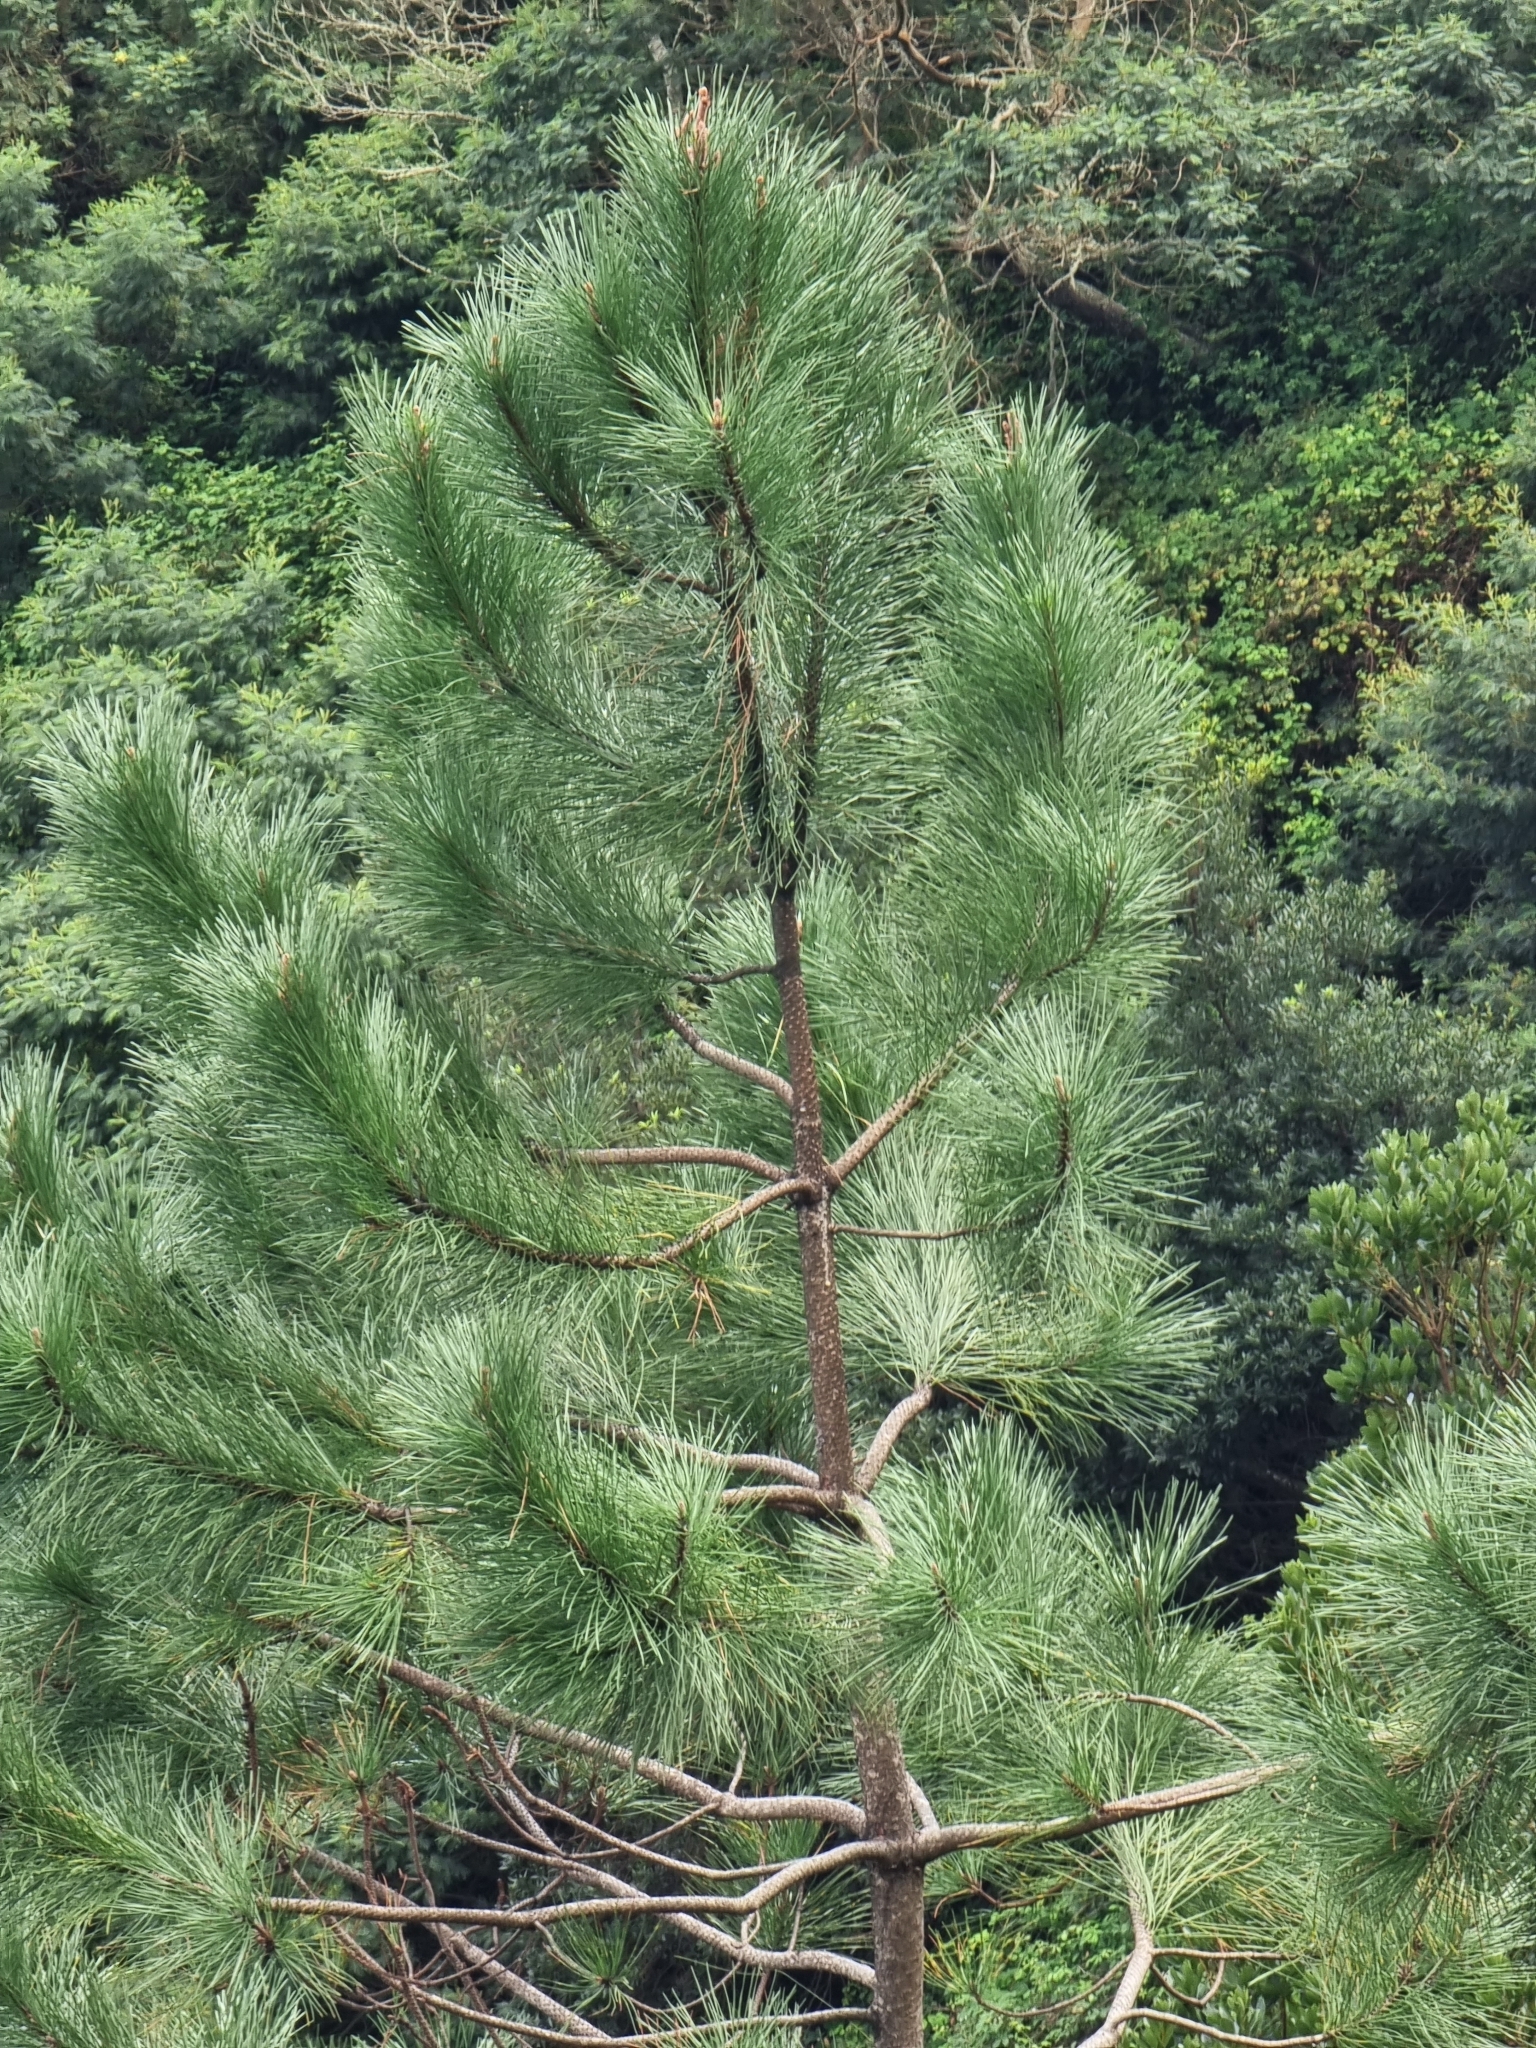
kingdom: Plantae
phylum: Tracheophyta
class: Pinopsida
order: Pinales
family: Pinaceae
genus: Pinus
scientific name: Pinus pinaster
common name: Maritime pine
